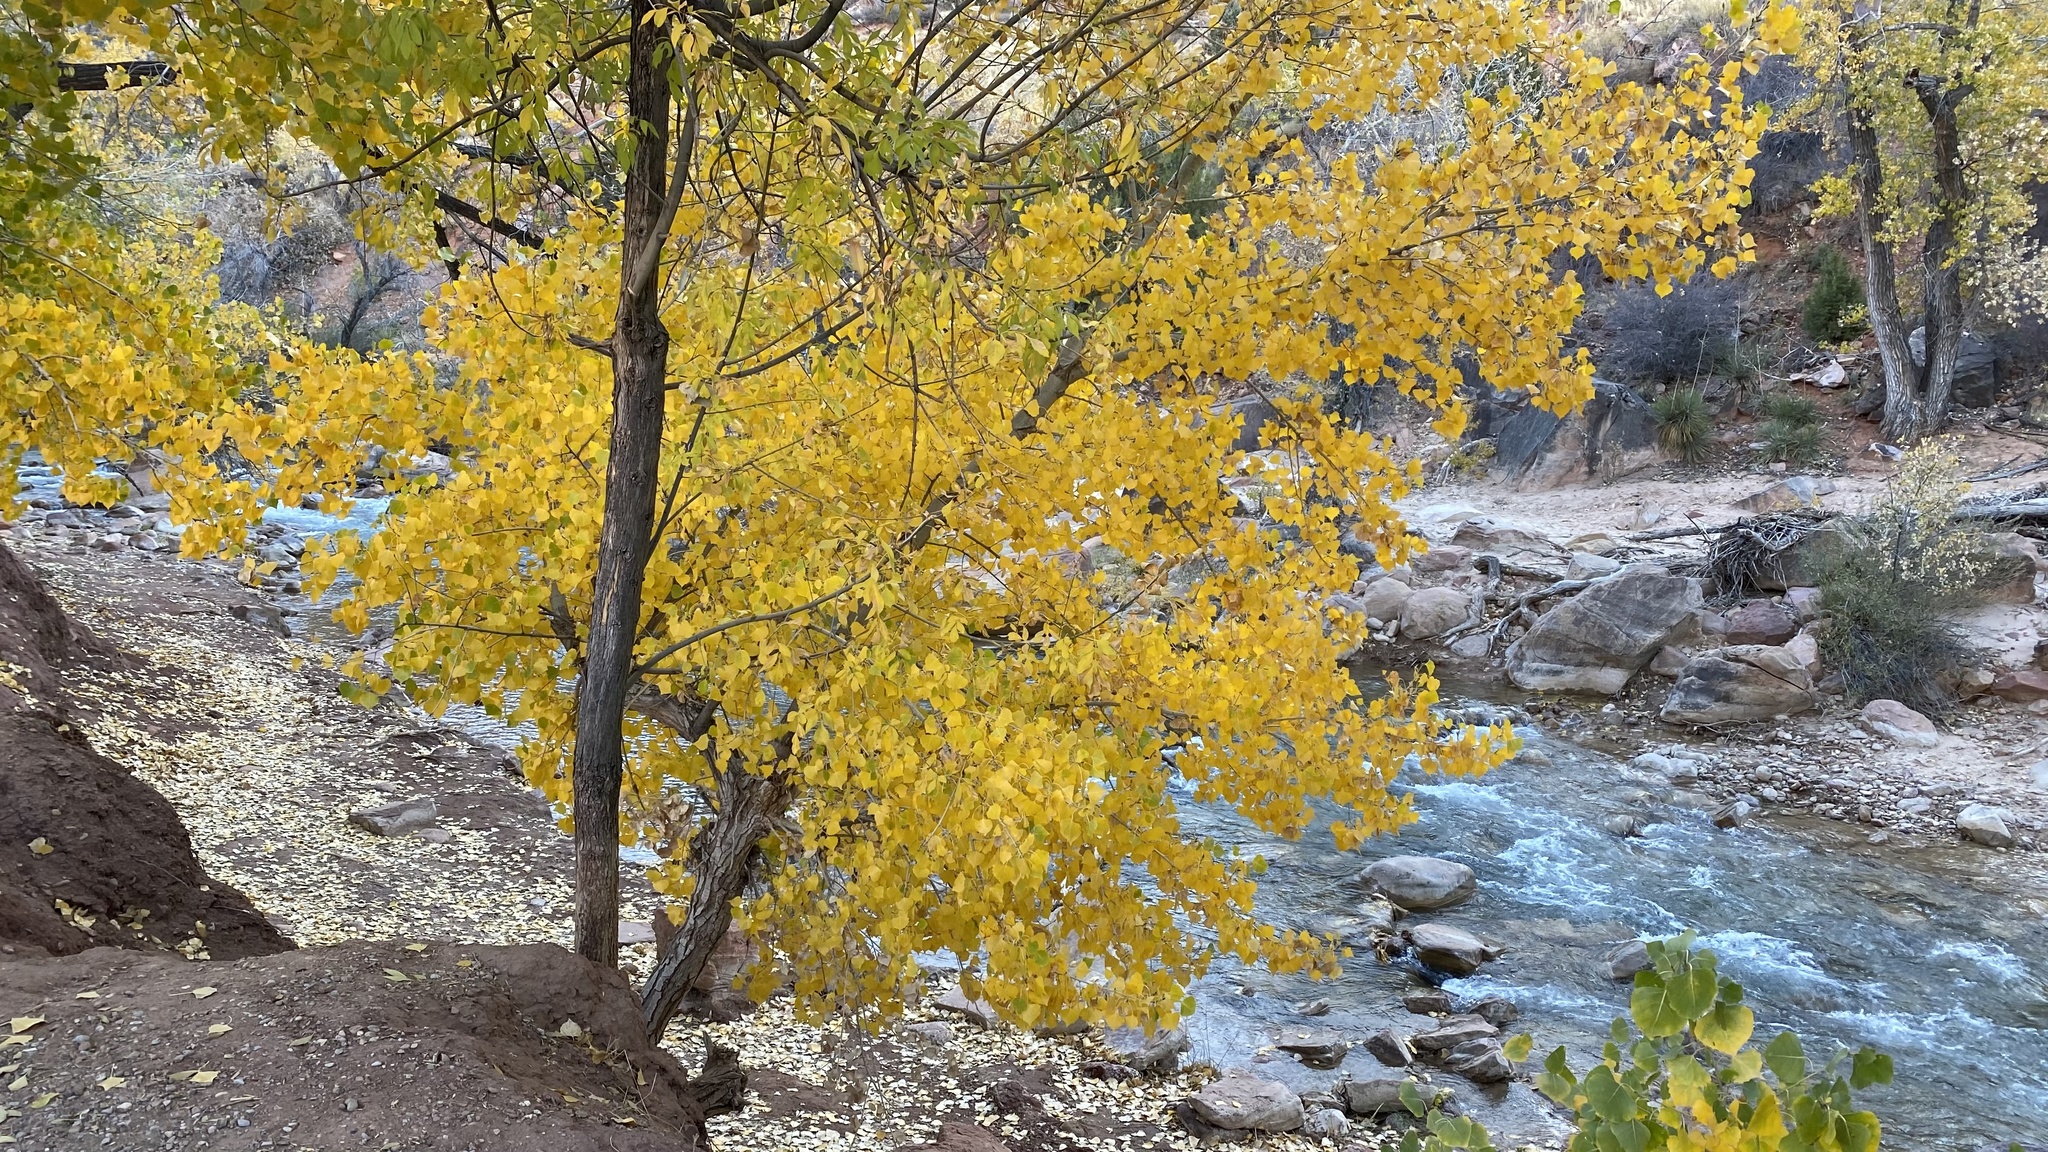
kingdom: Plantae
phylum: Tracheophyta
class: Magnoliopsida
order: Malpighiales
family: Salicaceae
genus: Populus
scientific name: Populus tremuloides
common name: Quaking aspen
